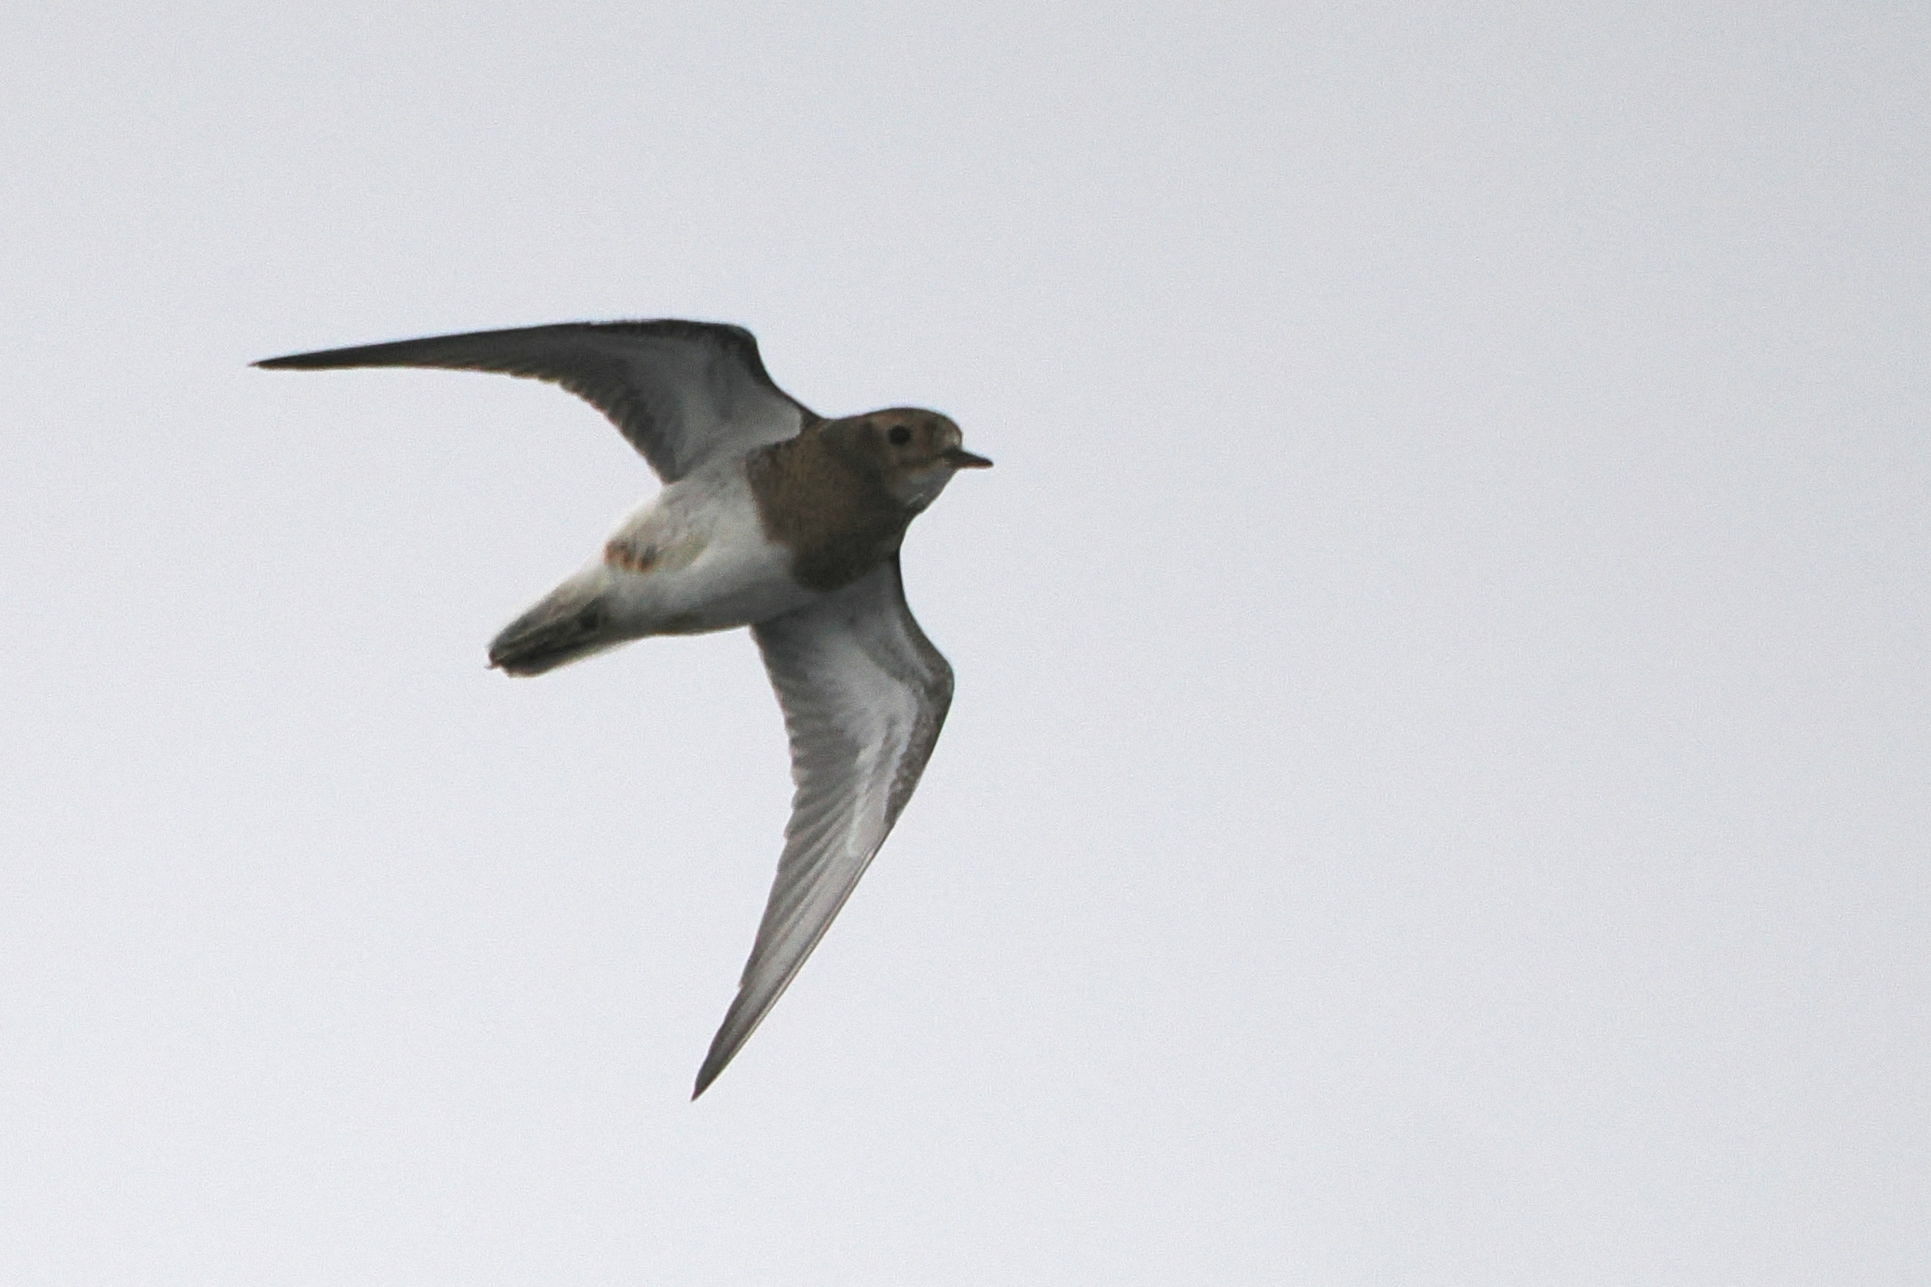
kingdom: Animalia
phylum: Chordata
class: Aves
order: Charadriiformes
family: Charadriidae
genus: Charadrius
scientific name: Charadrius modestus
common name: Rufous-chested plover
